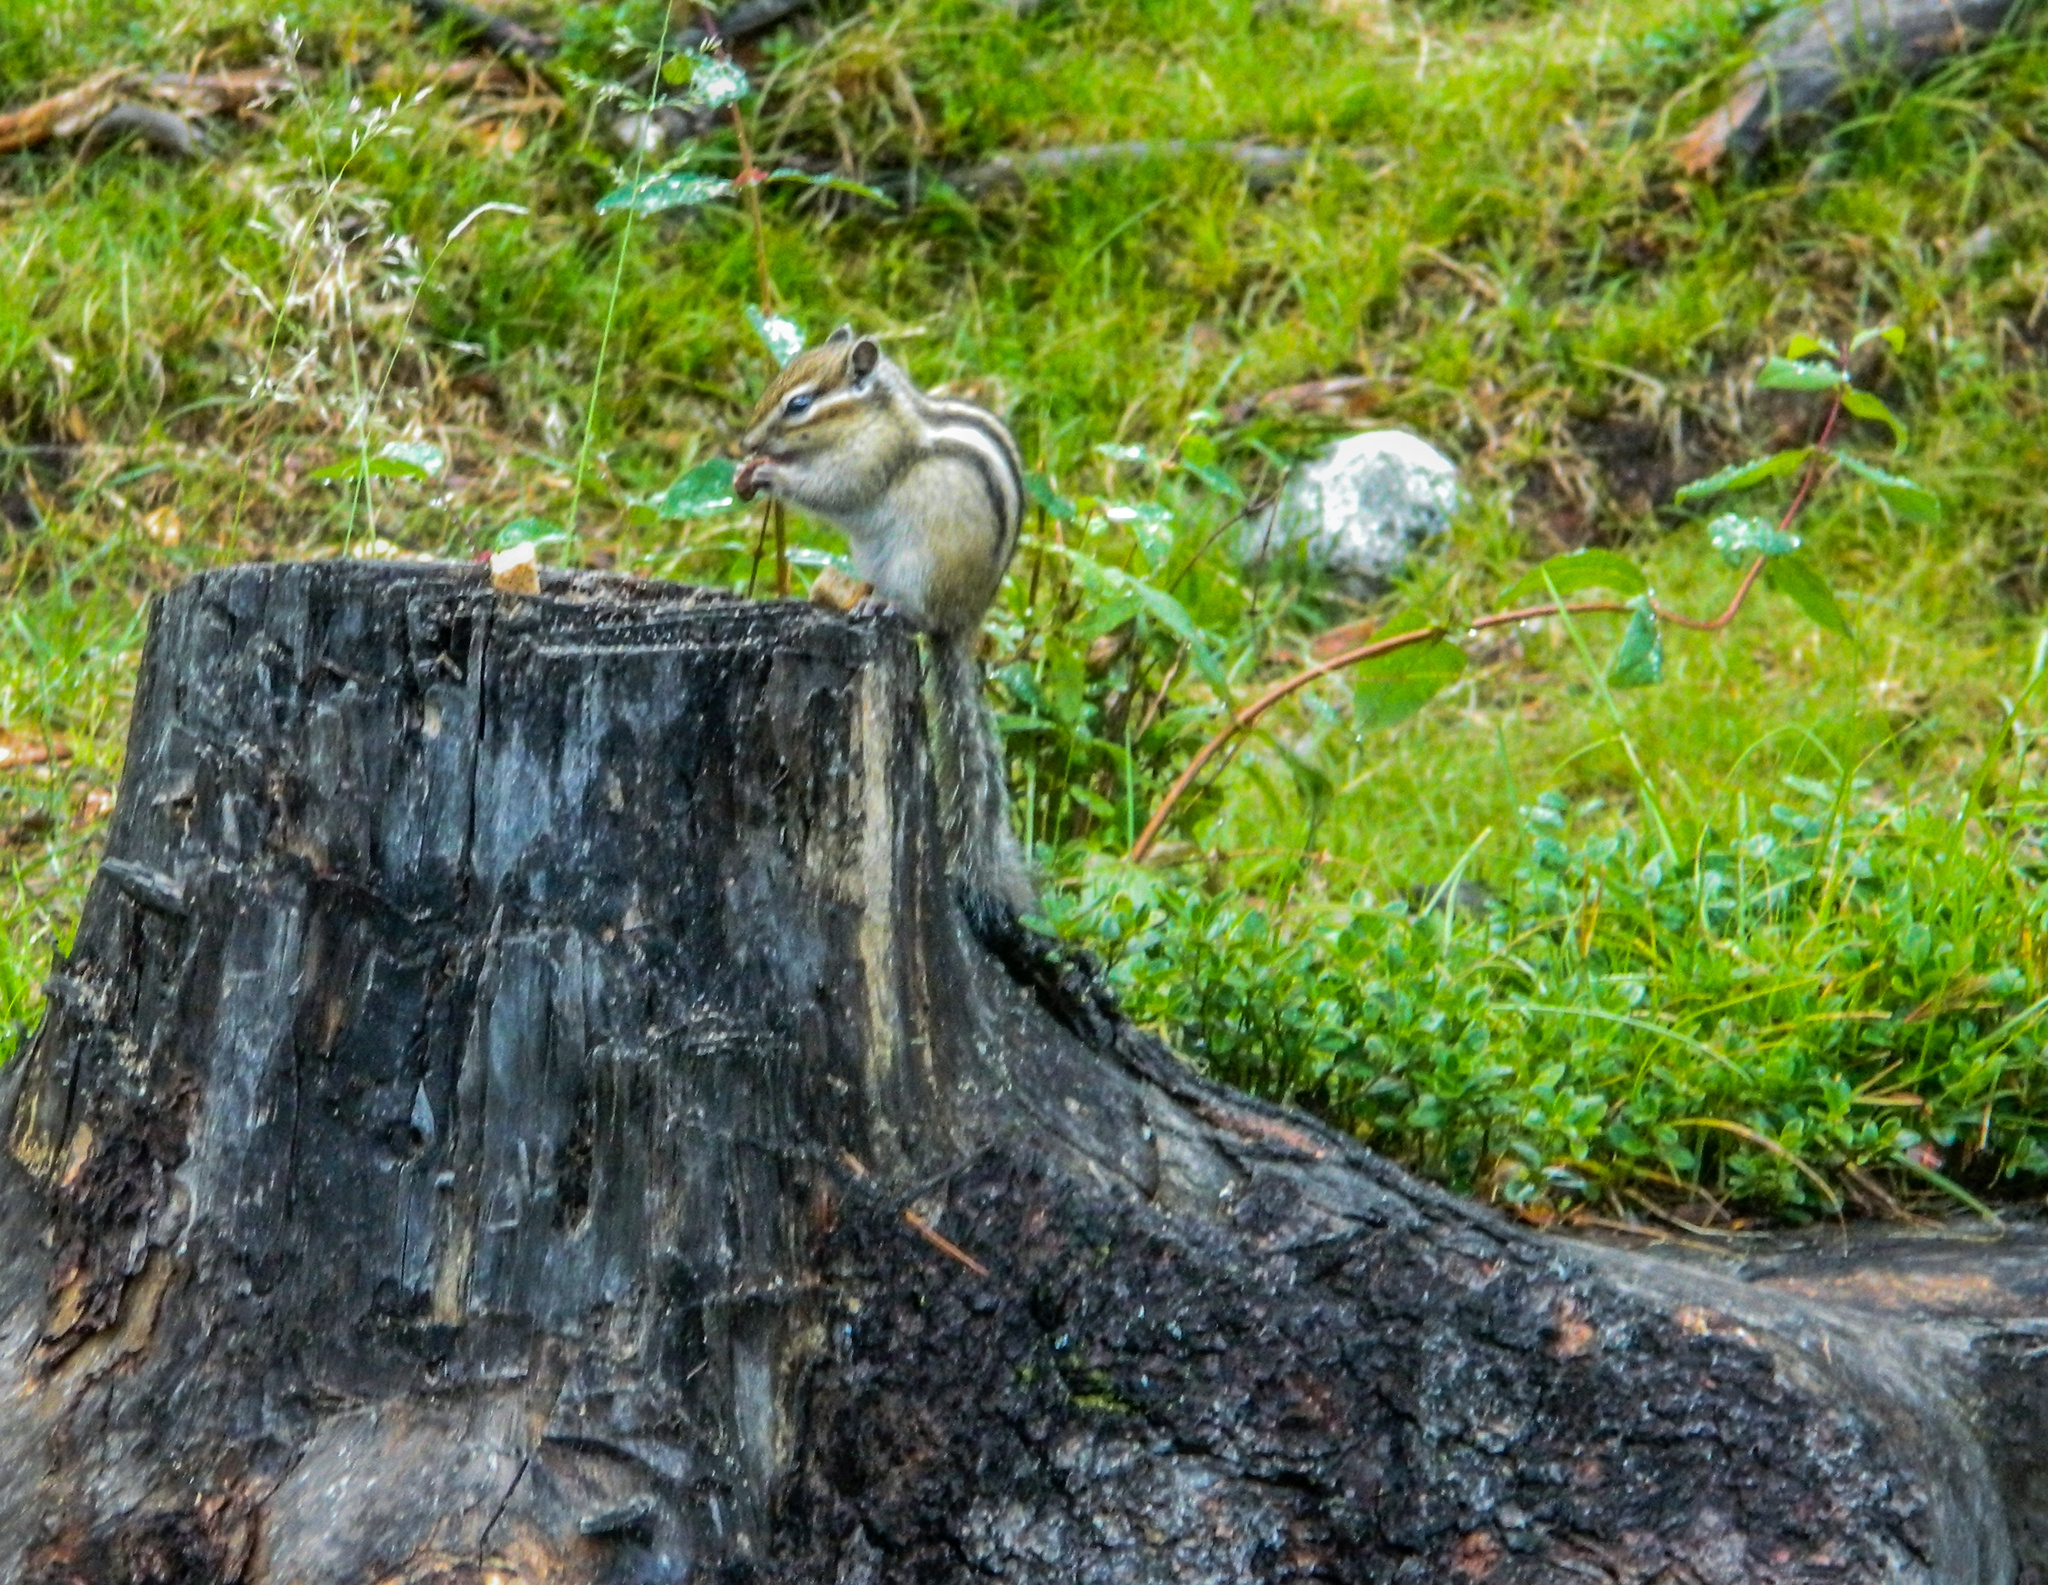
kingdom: Animalia
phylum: Chordata
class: Mammalia
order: Rodentia
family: Sciuridae
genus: Tamias
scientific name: Tamias sibiricus
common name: Siberian chipmunk
